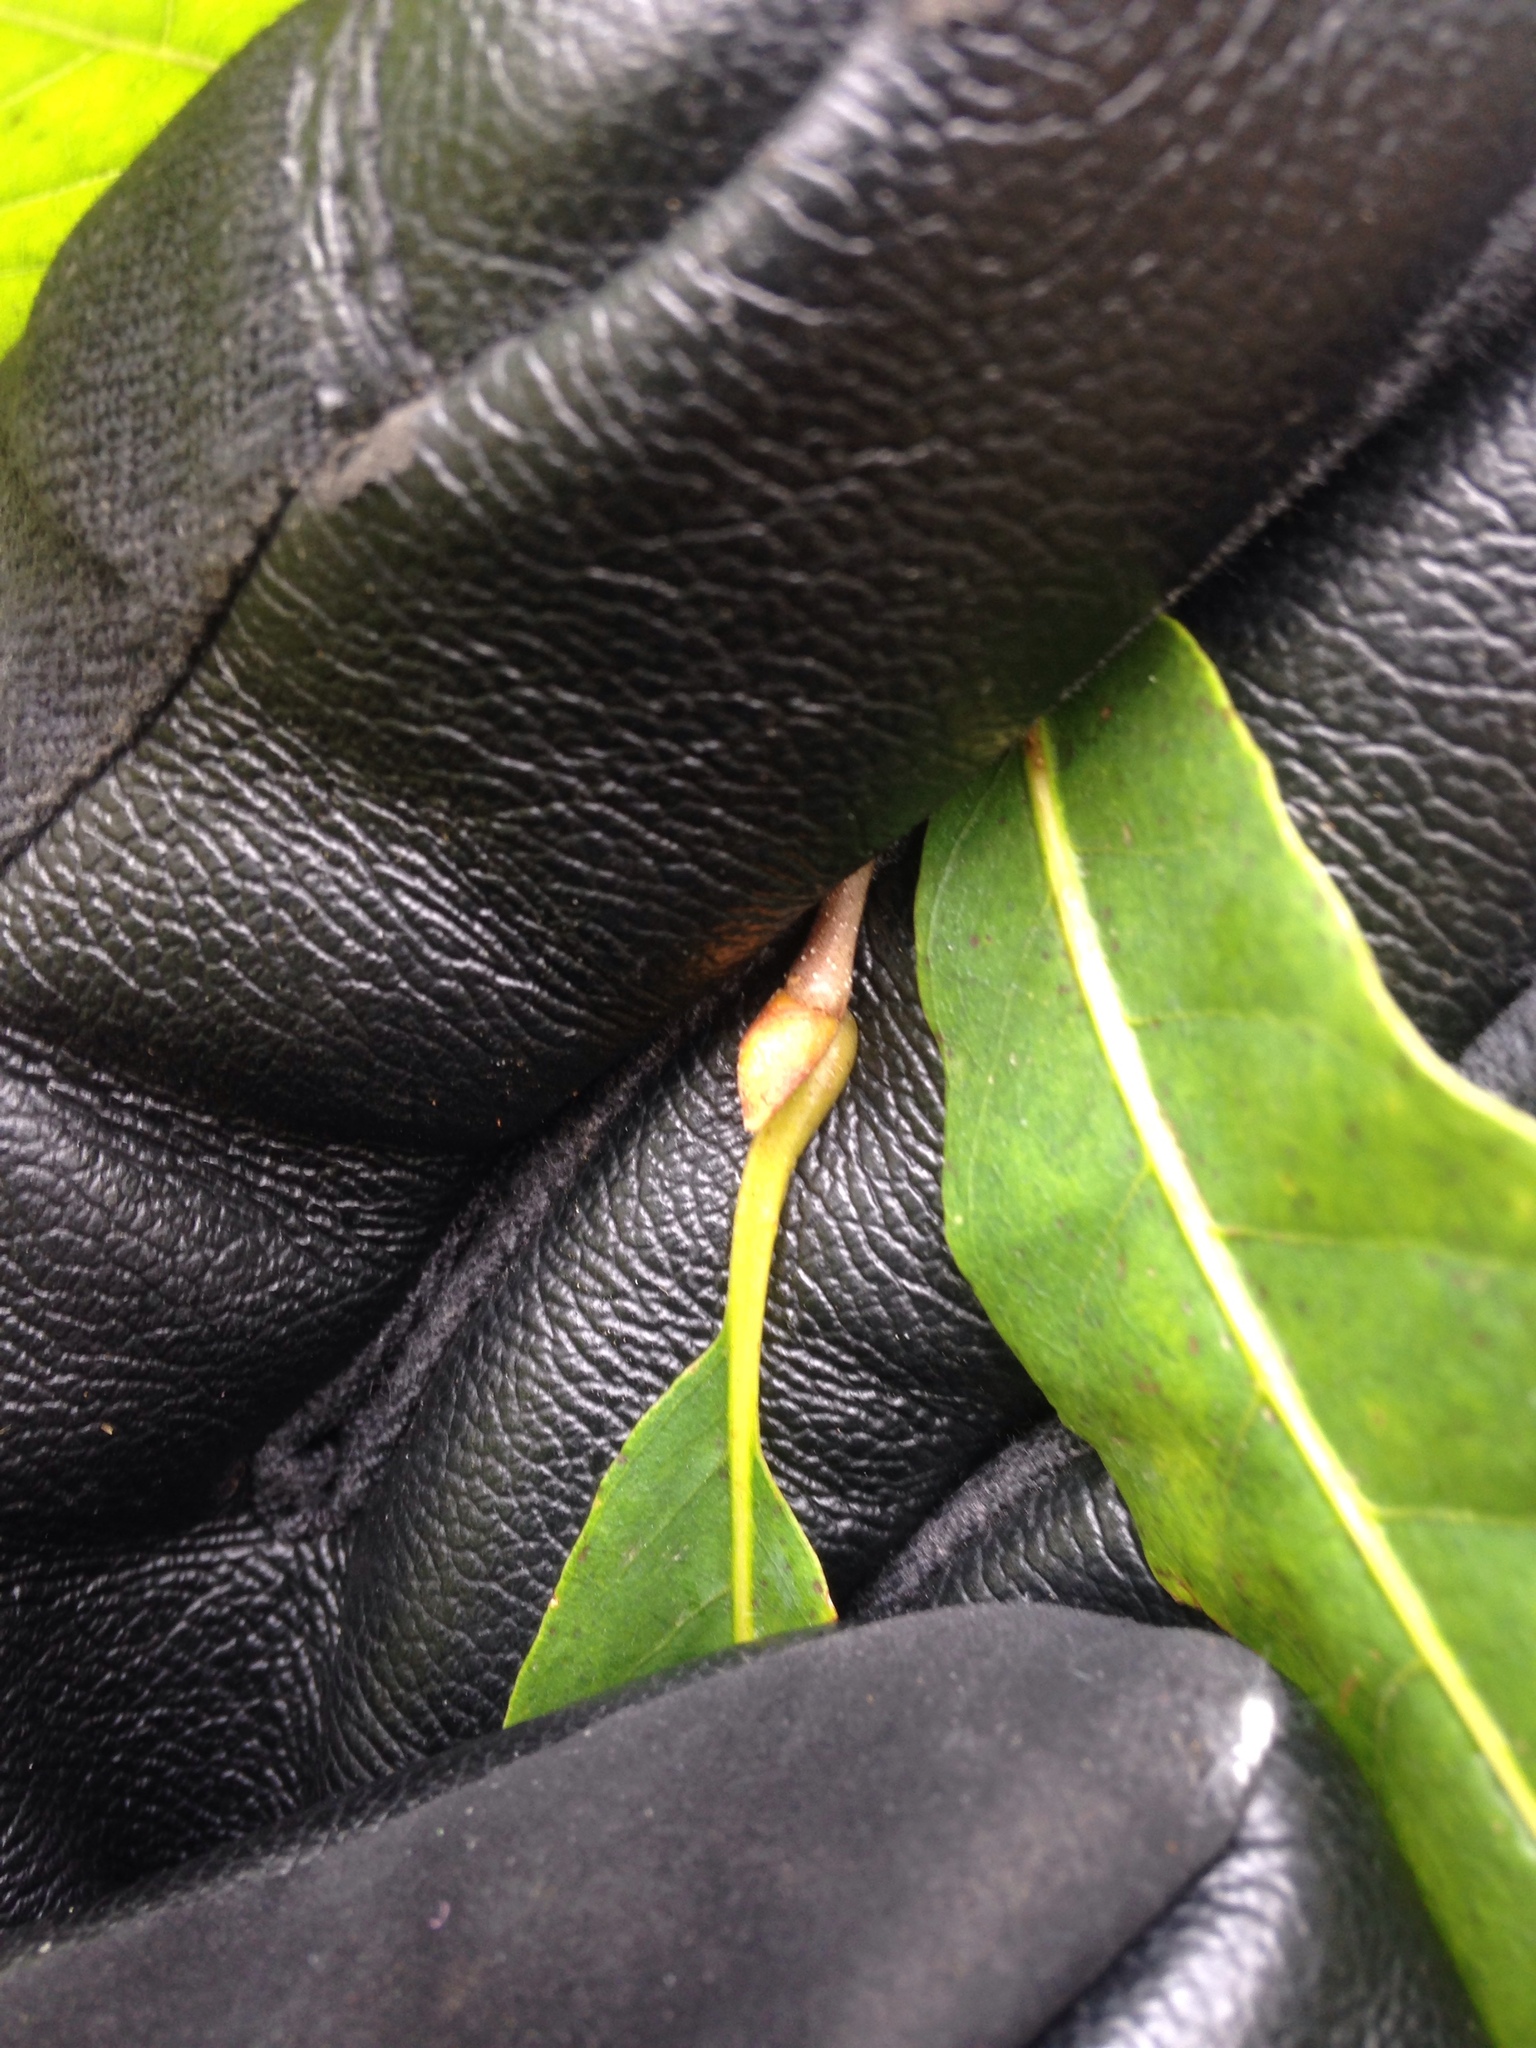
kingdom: Plantae
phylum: Tracheophyta
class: Magnoliopsida
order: Fagales
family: Fagaceae
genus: Castanea
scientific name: Castanea dentata
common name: American chestnut
